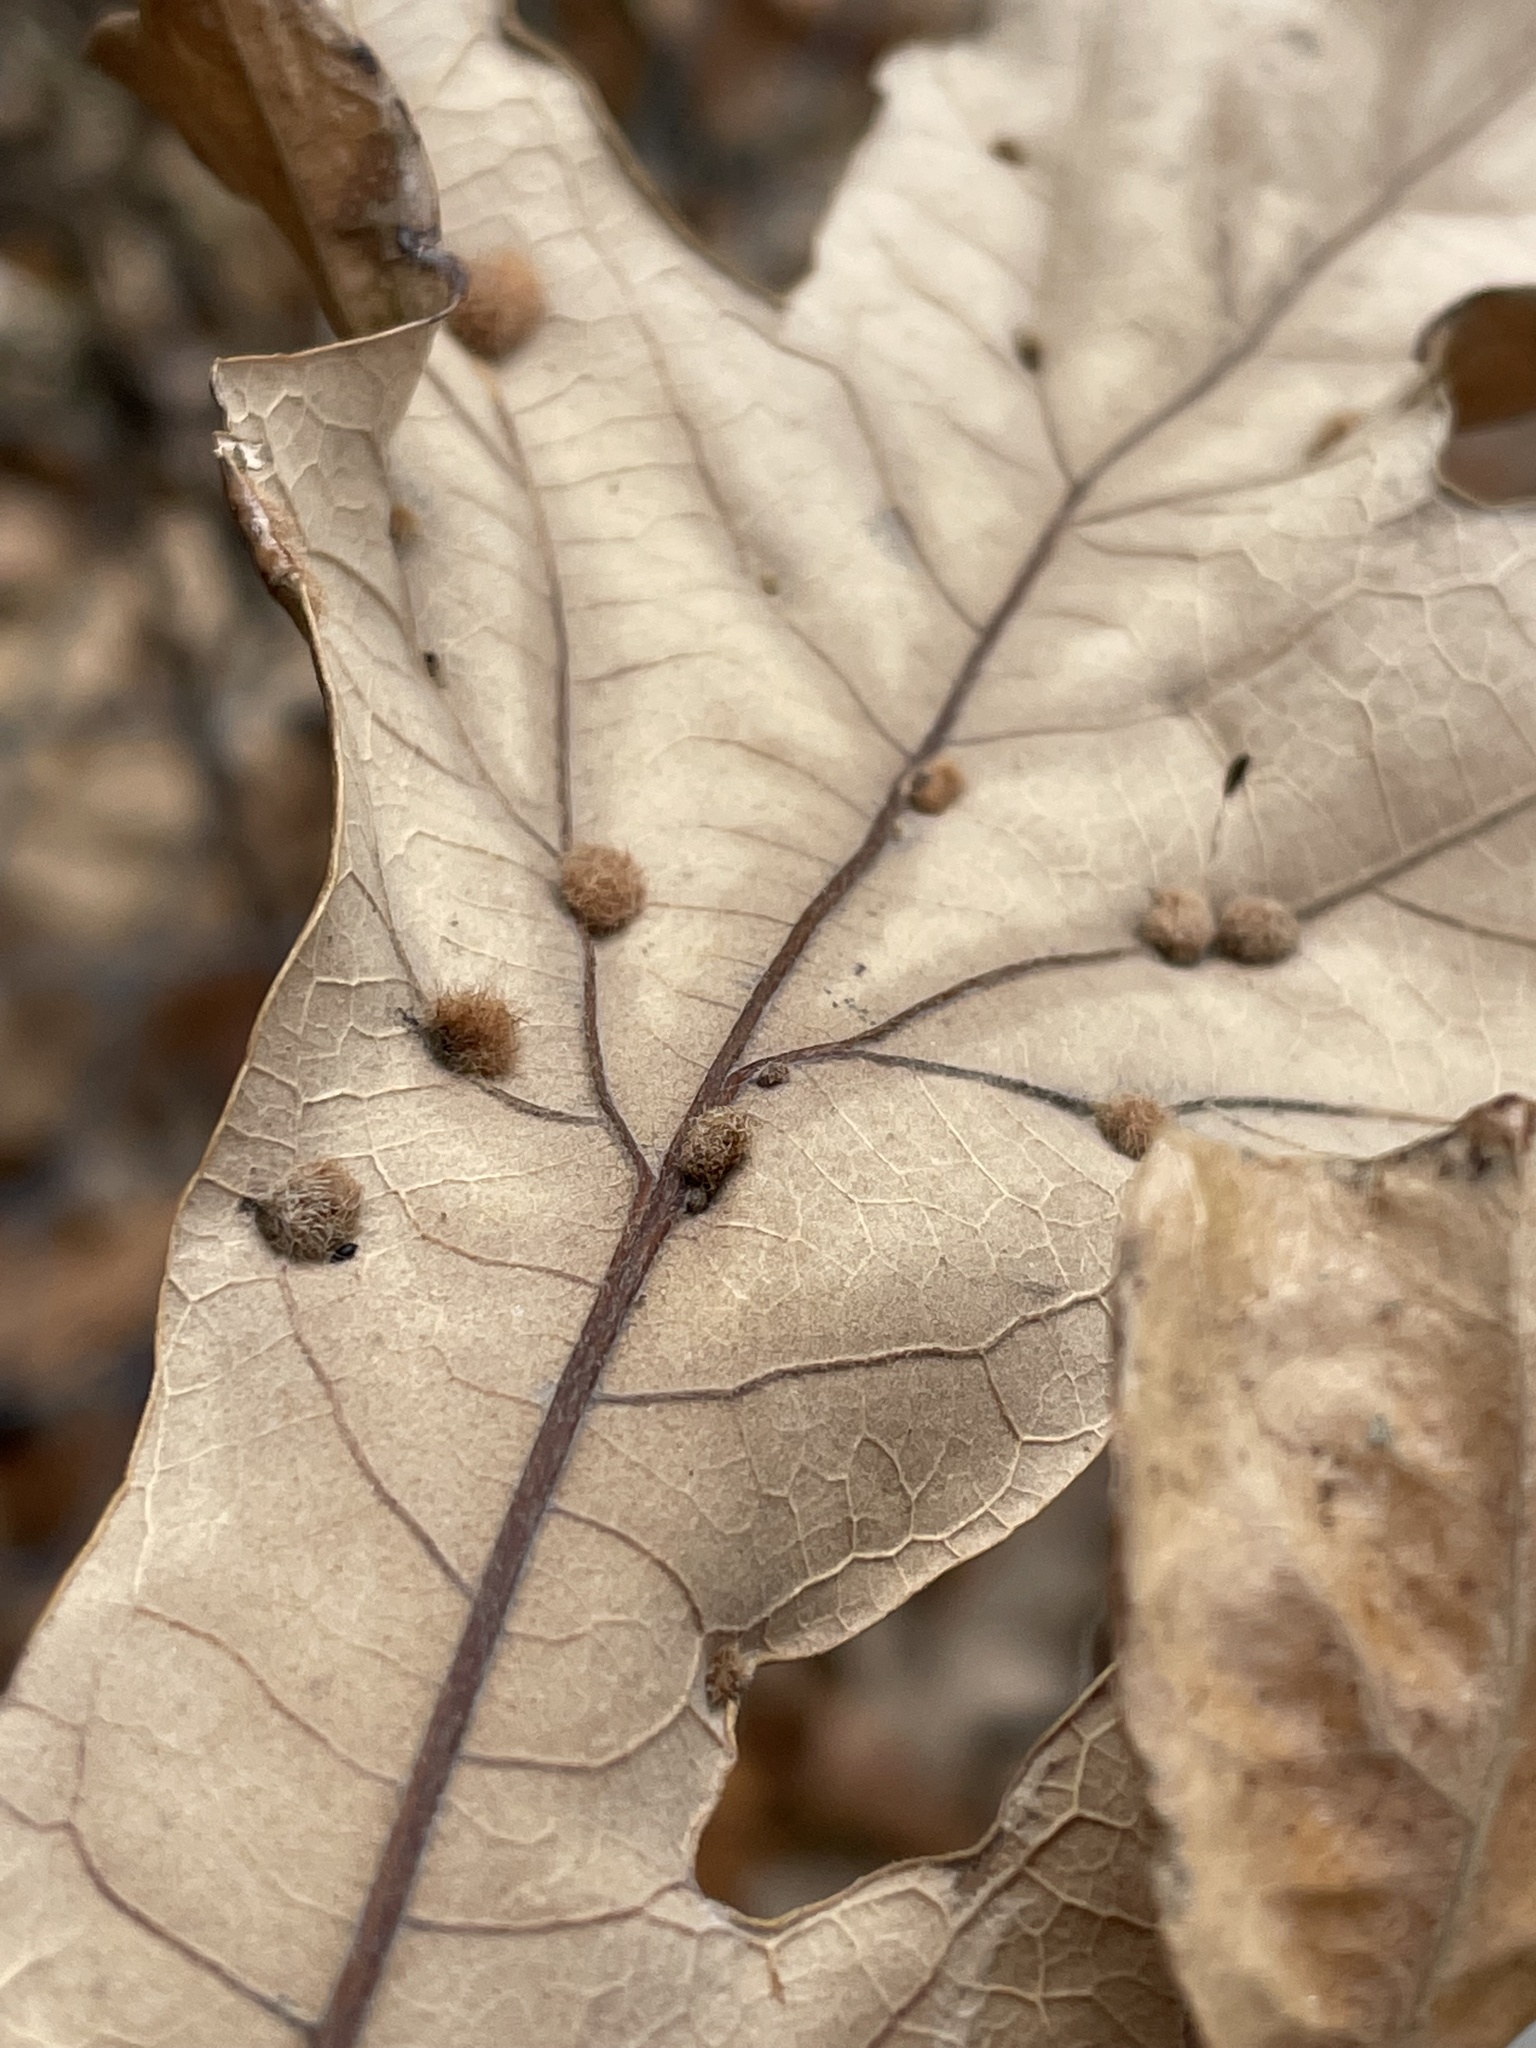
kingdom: Animalia
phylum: Arthropoda
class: Insecta
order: Hymenoptera
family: Cynipidae
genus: Neuroterus
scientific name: Neuroterus quercusverrucarum
